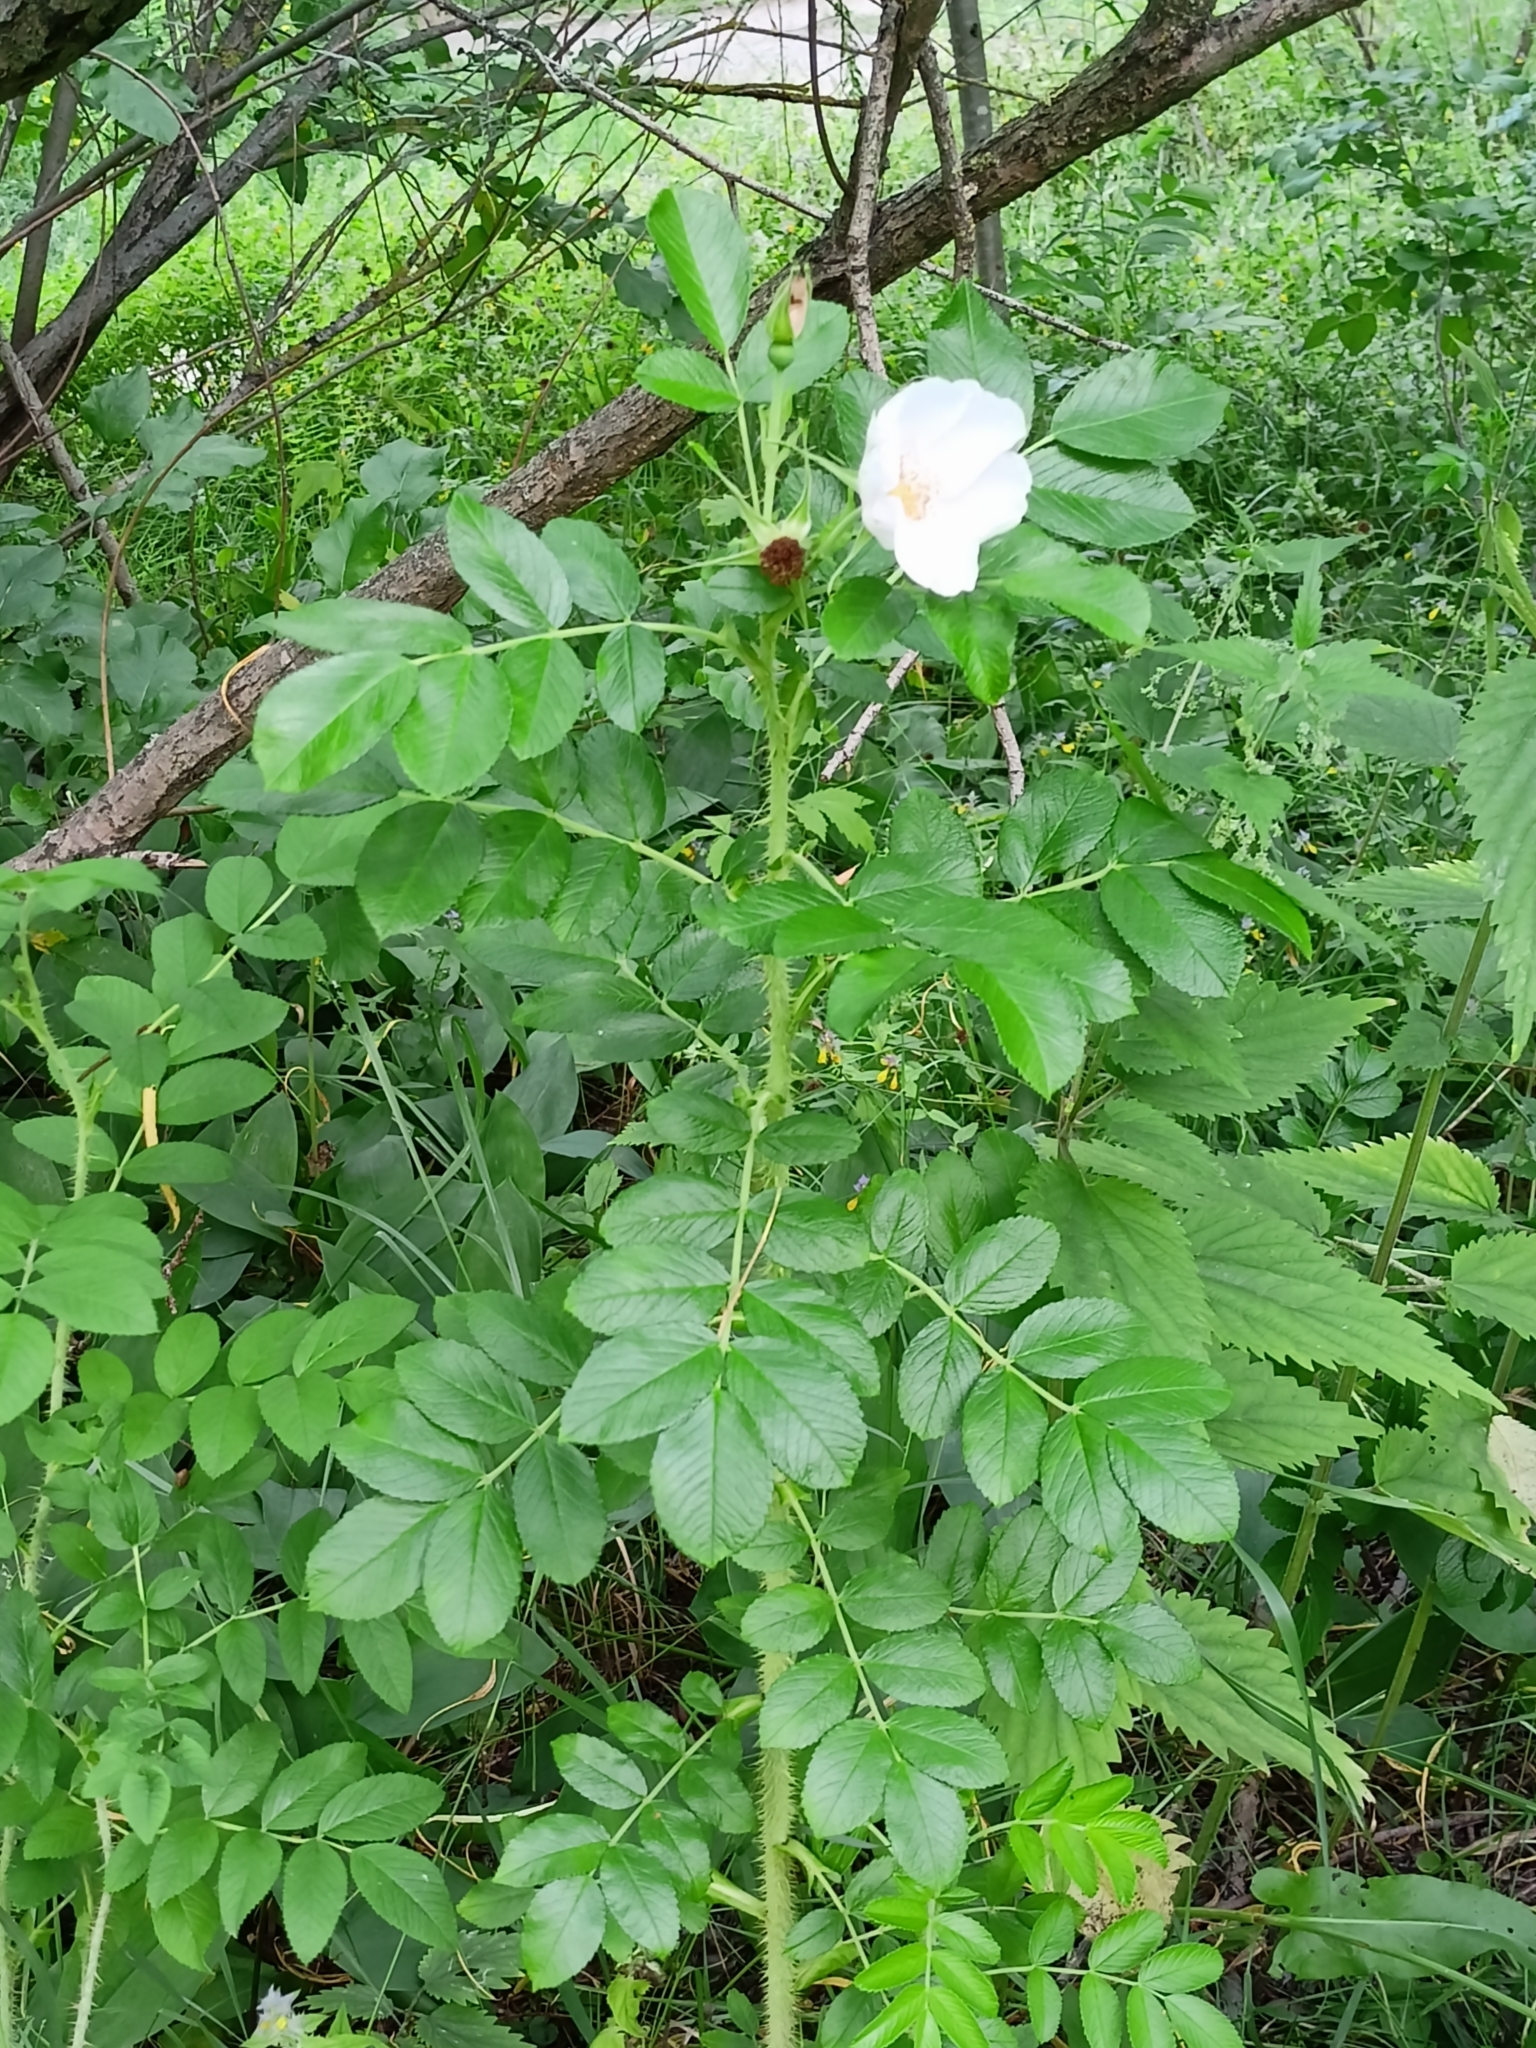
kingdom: Plantae
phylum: Tracheophyta
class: Magnoliopsida
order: Rosales
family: Rosaceae
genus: Rosa
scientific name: Rosa rugosa
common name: Japanese rose
